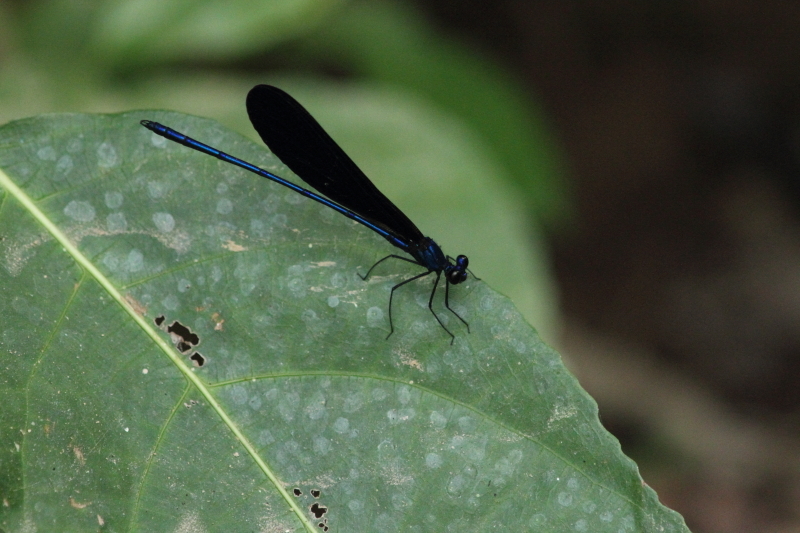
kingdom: Animalia
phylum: Arthropoda
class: Insecta
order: Odonata
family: Calopterygidae
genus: Vestalis
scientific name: Vestalis luctuosa
